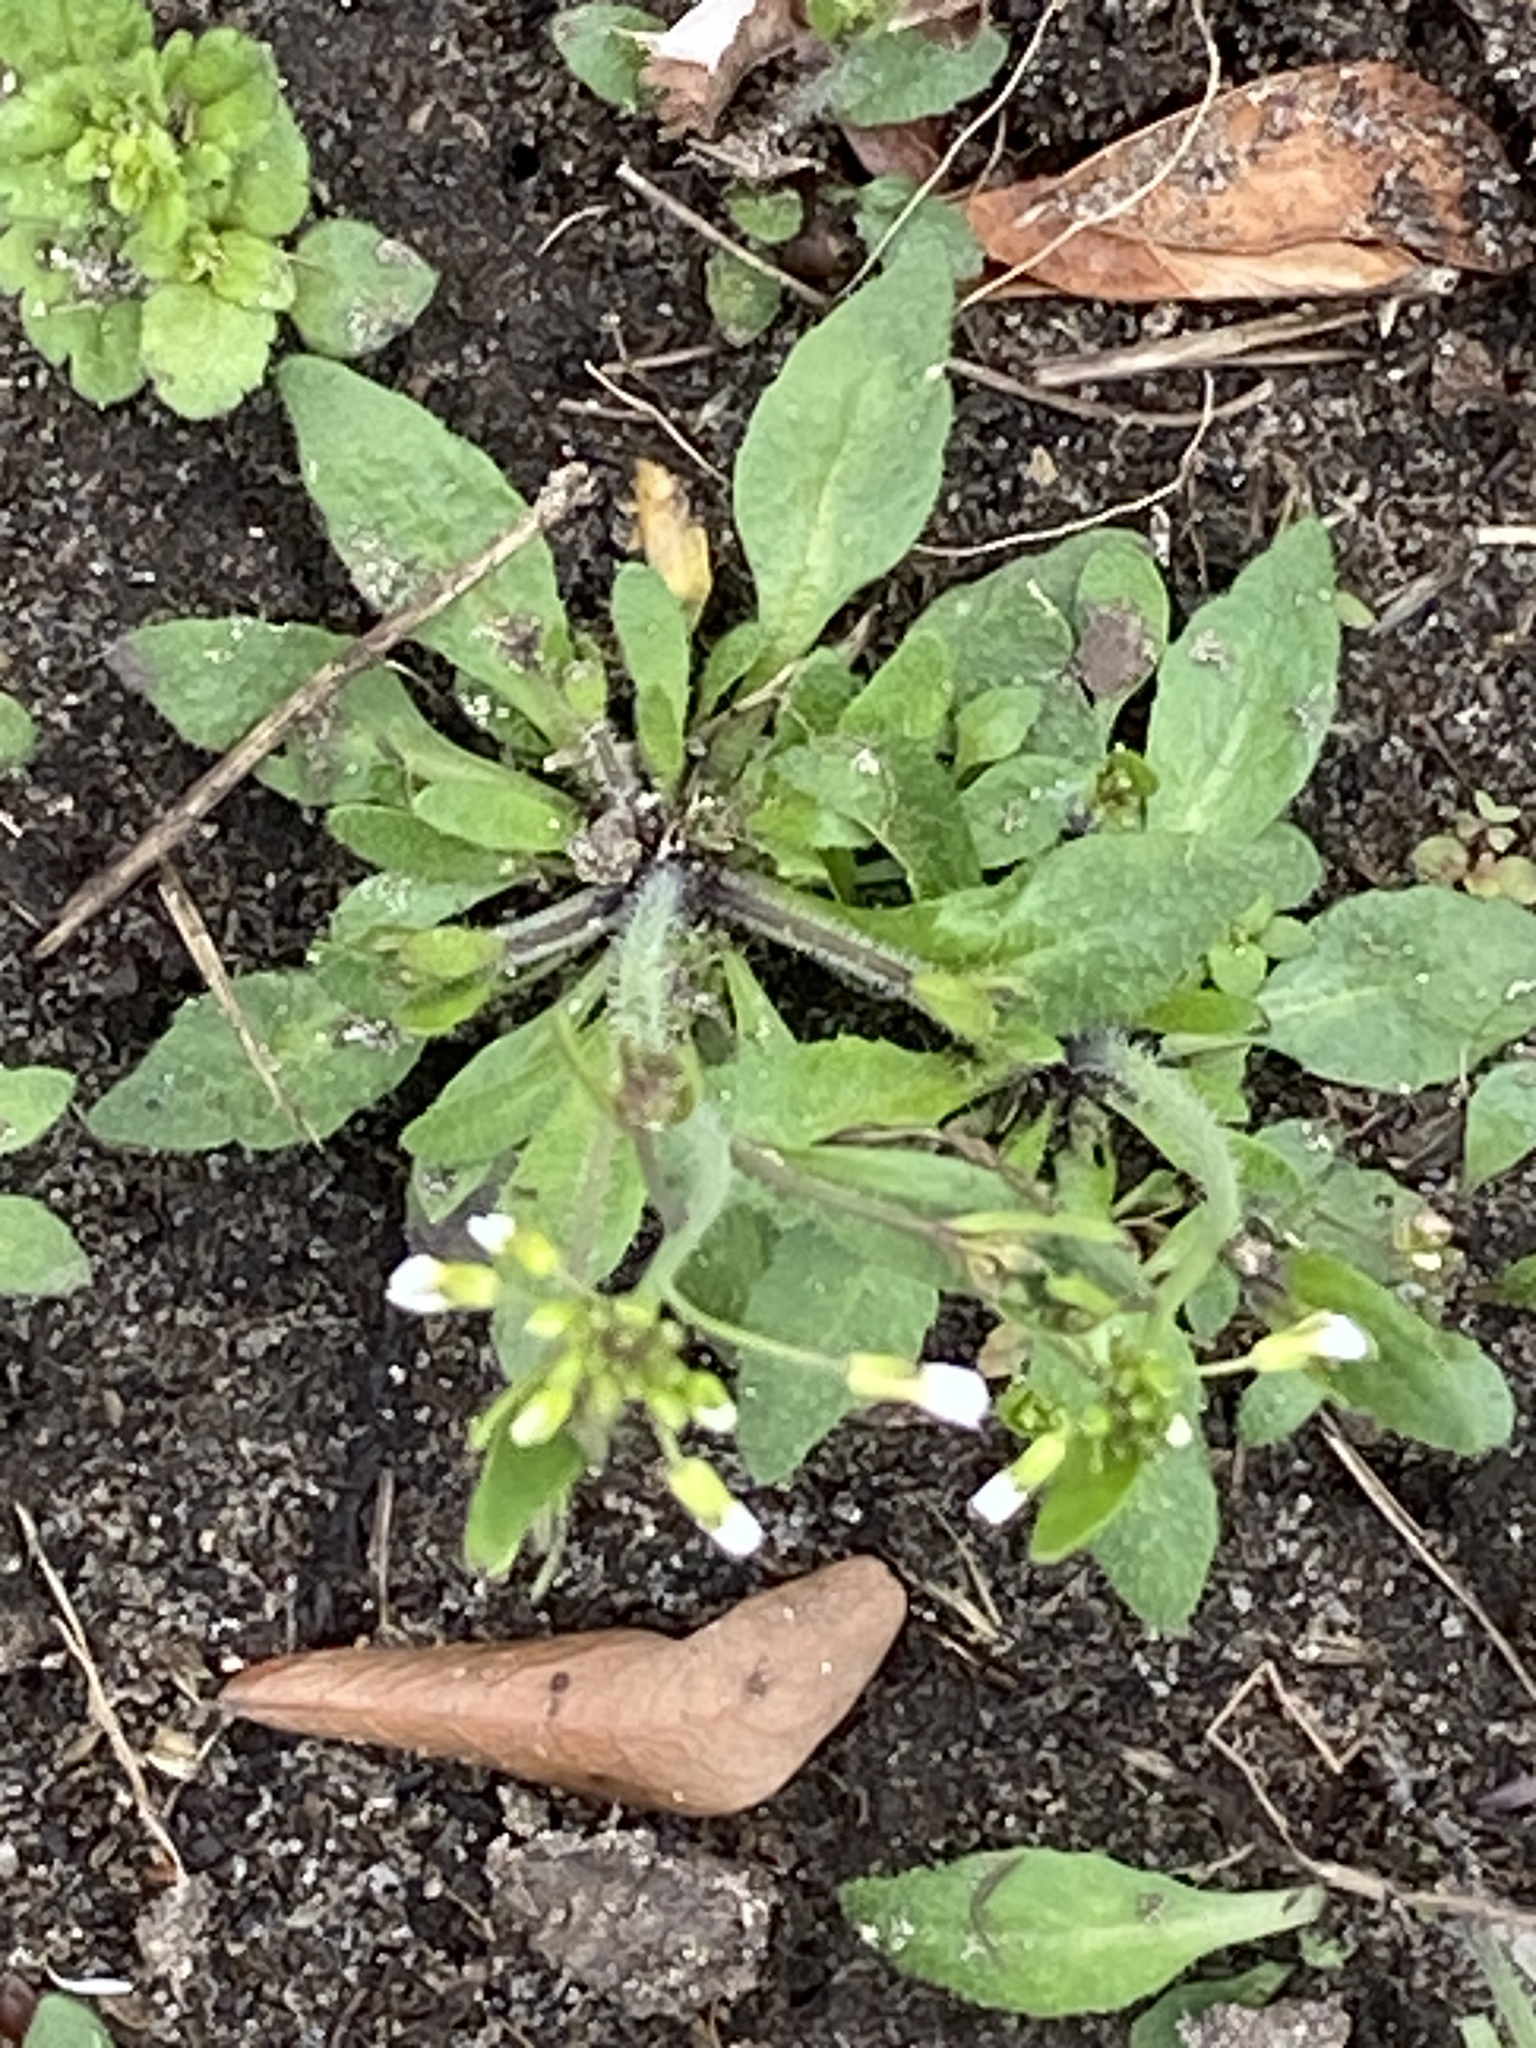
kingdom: Plantae
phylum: Tracheophyta
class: Magnoliopsida
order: Brassicales
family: Brassicaceae
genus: Arabidopsis
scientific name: Arabidopsis thaliana
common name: Thale cress
